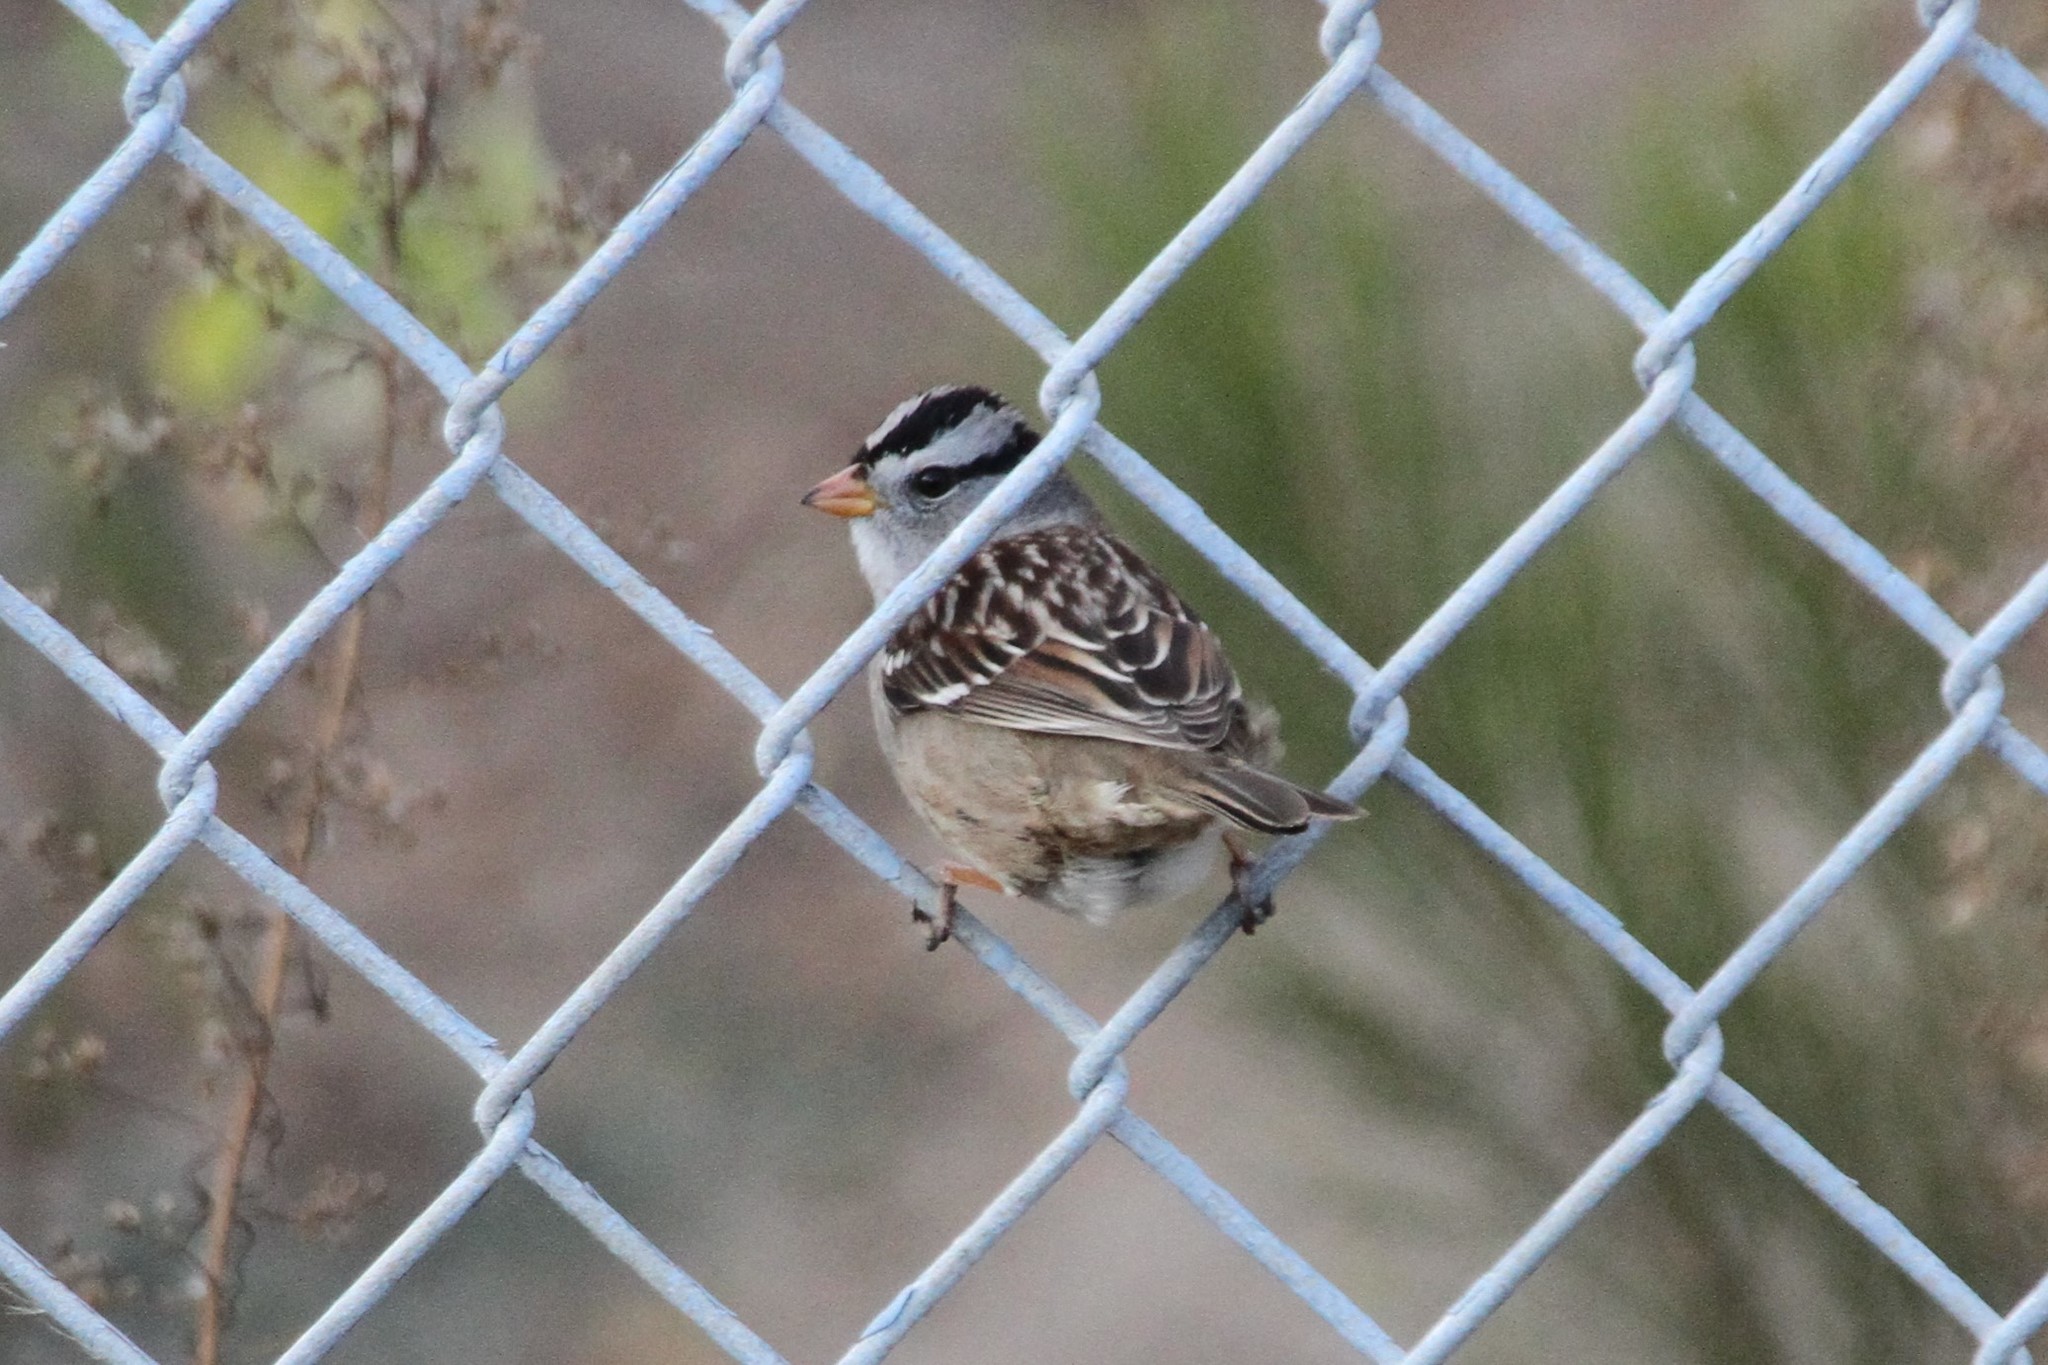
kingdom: Animalia
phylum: Chordata
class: Aves
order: Passeriformes
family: Passerellidae
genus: Zonotrichia
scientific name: Zonotrichia leucophrys
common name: White-crowned sparrow
